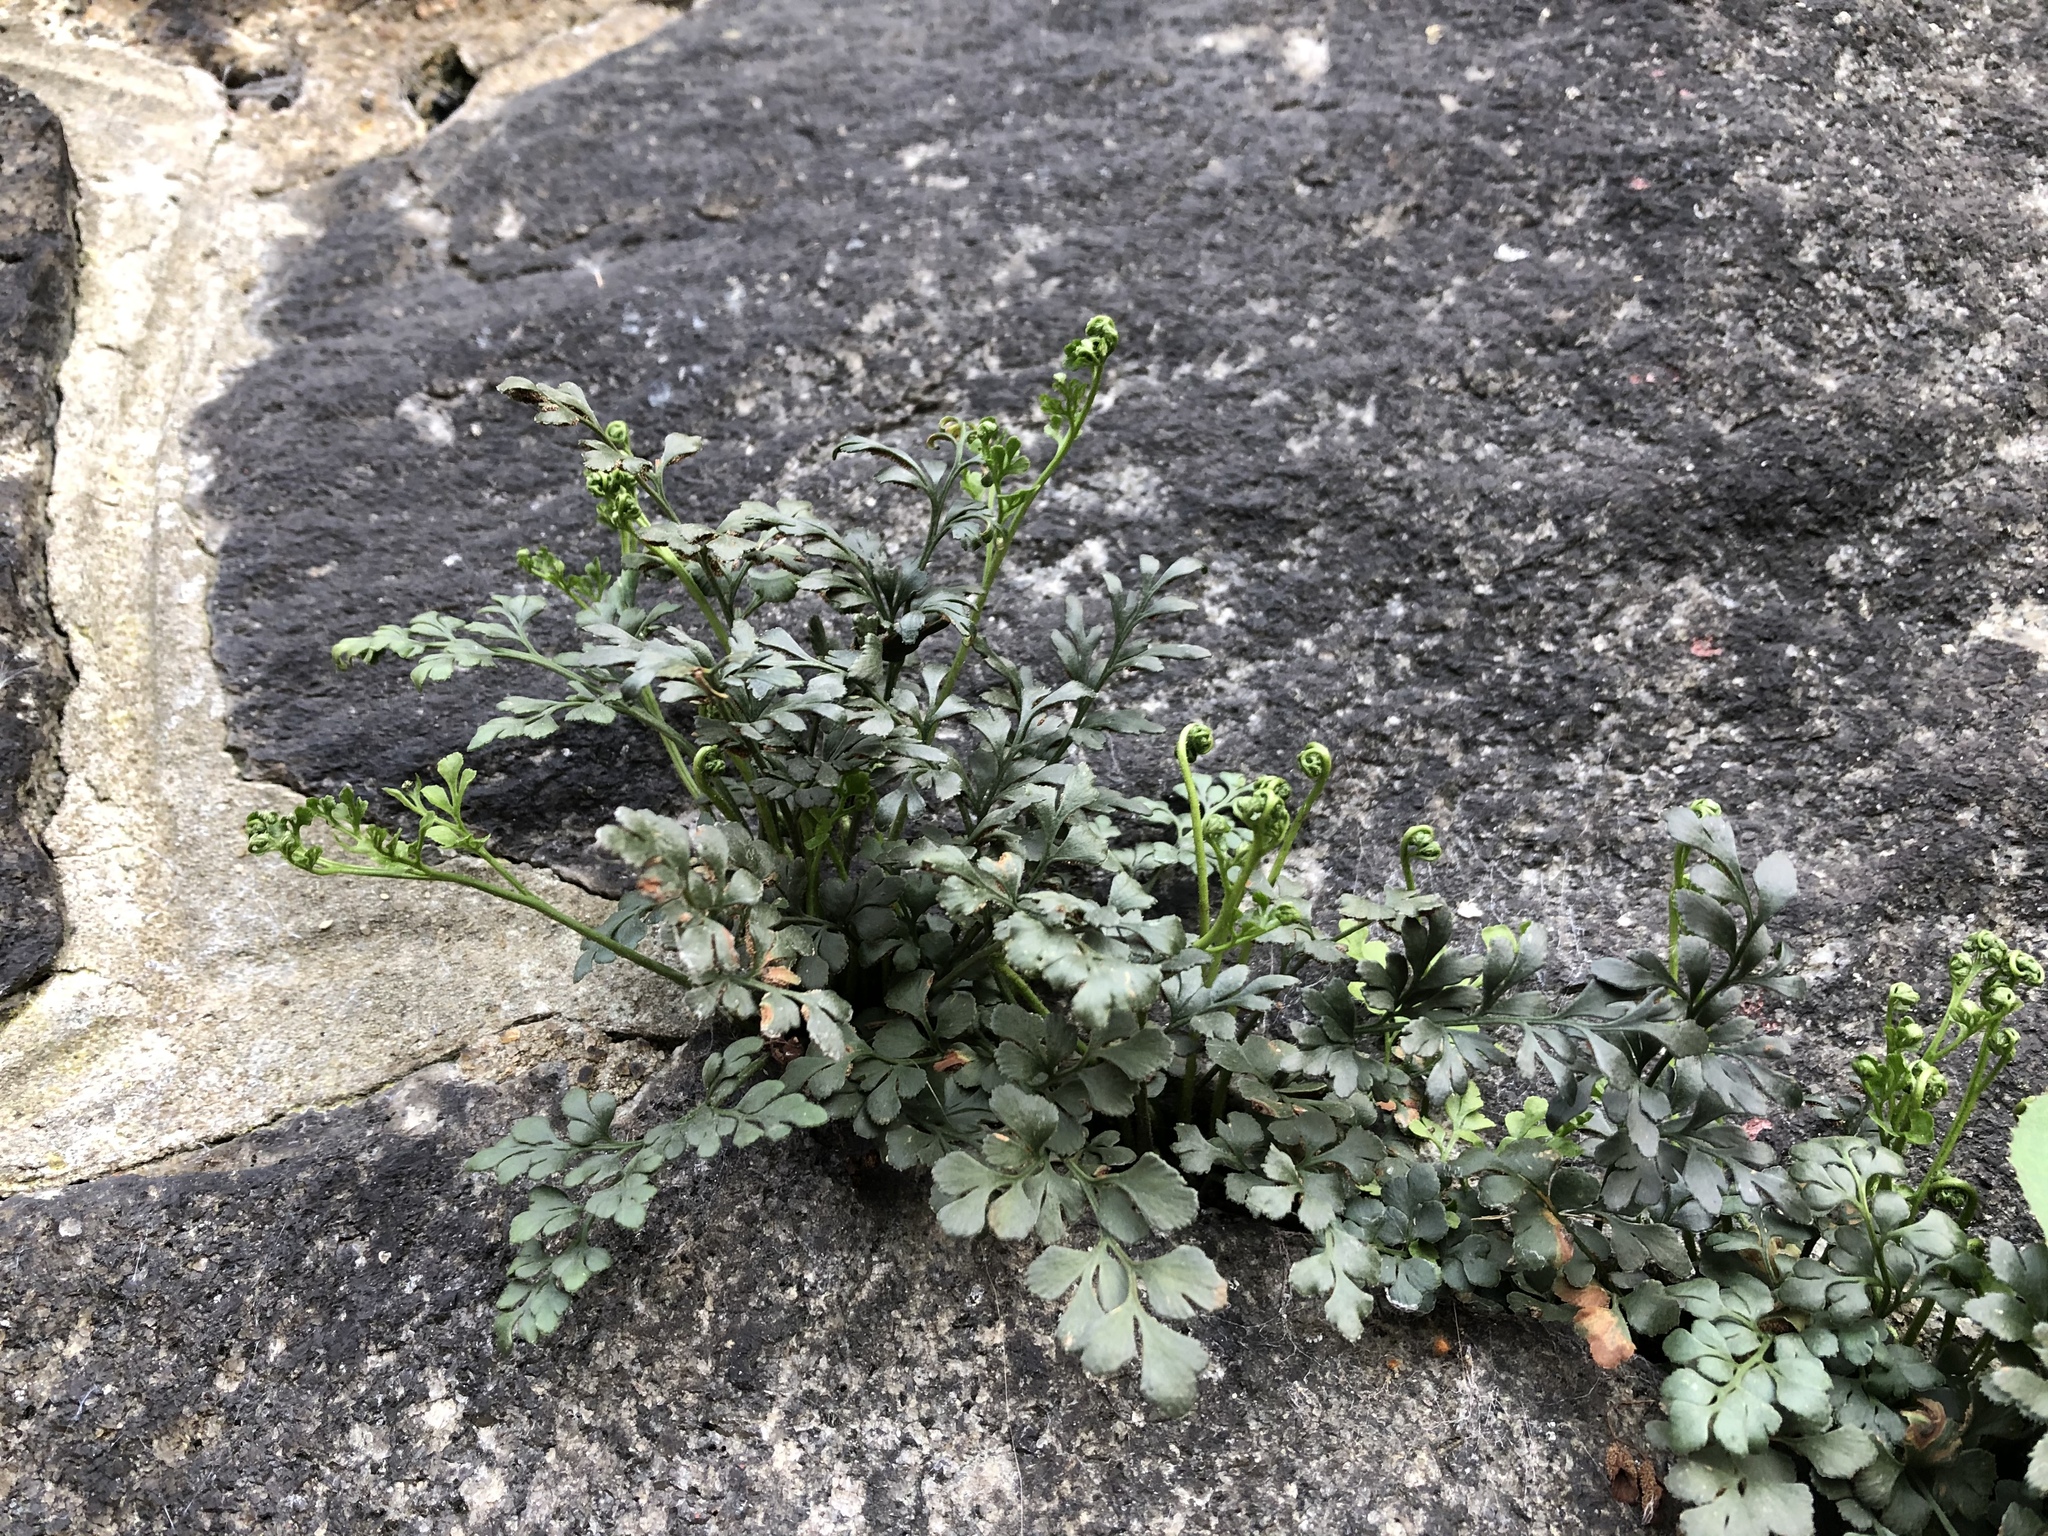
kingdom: Plantae
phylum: Tracheophyta
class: Polypodiopsida
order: Polypodiales
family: Aspleniaceae
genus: Asplenium
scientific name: Asplenium ruta-muraria
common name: Wall-rue
